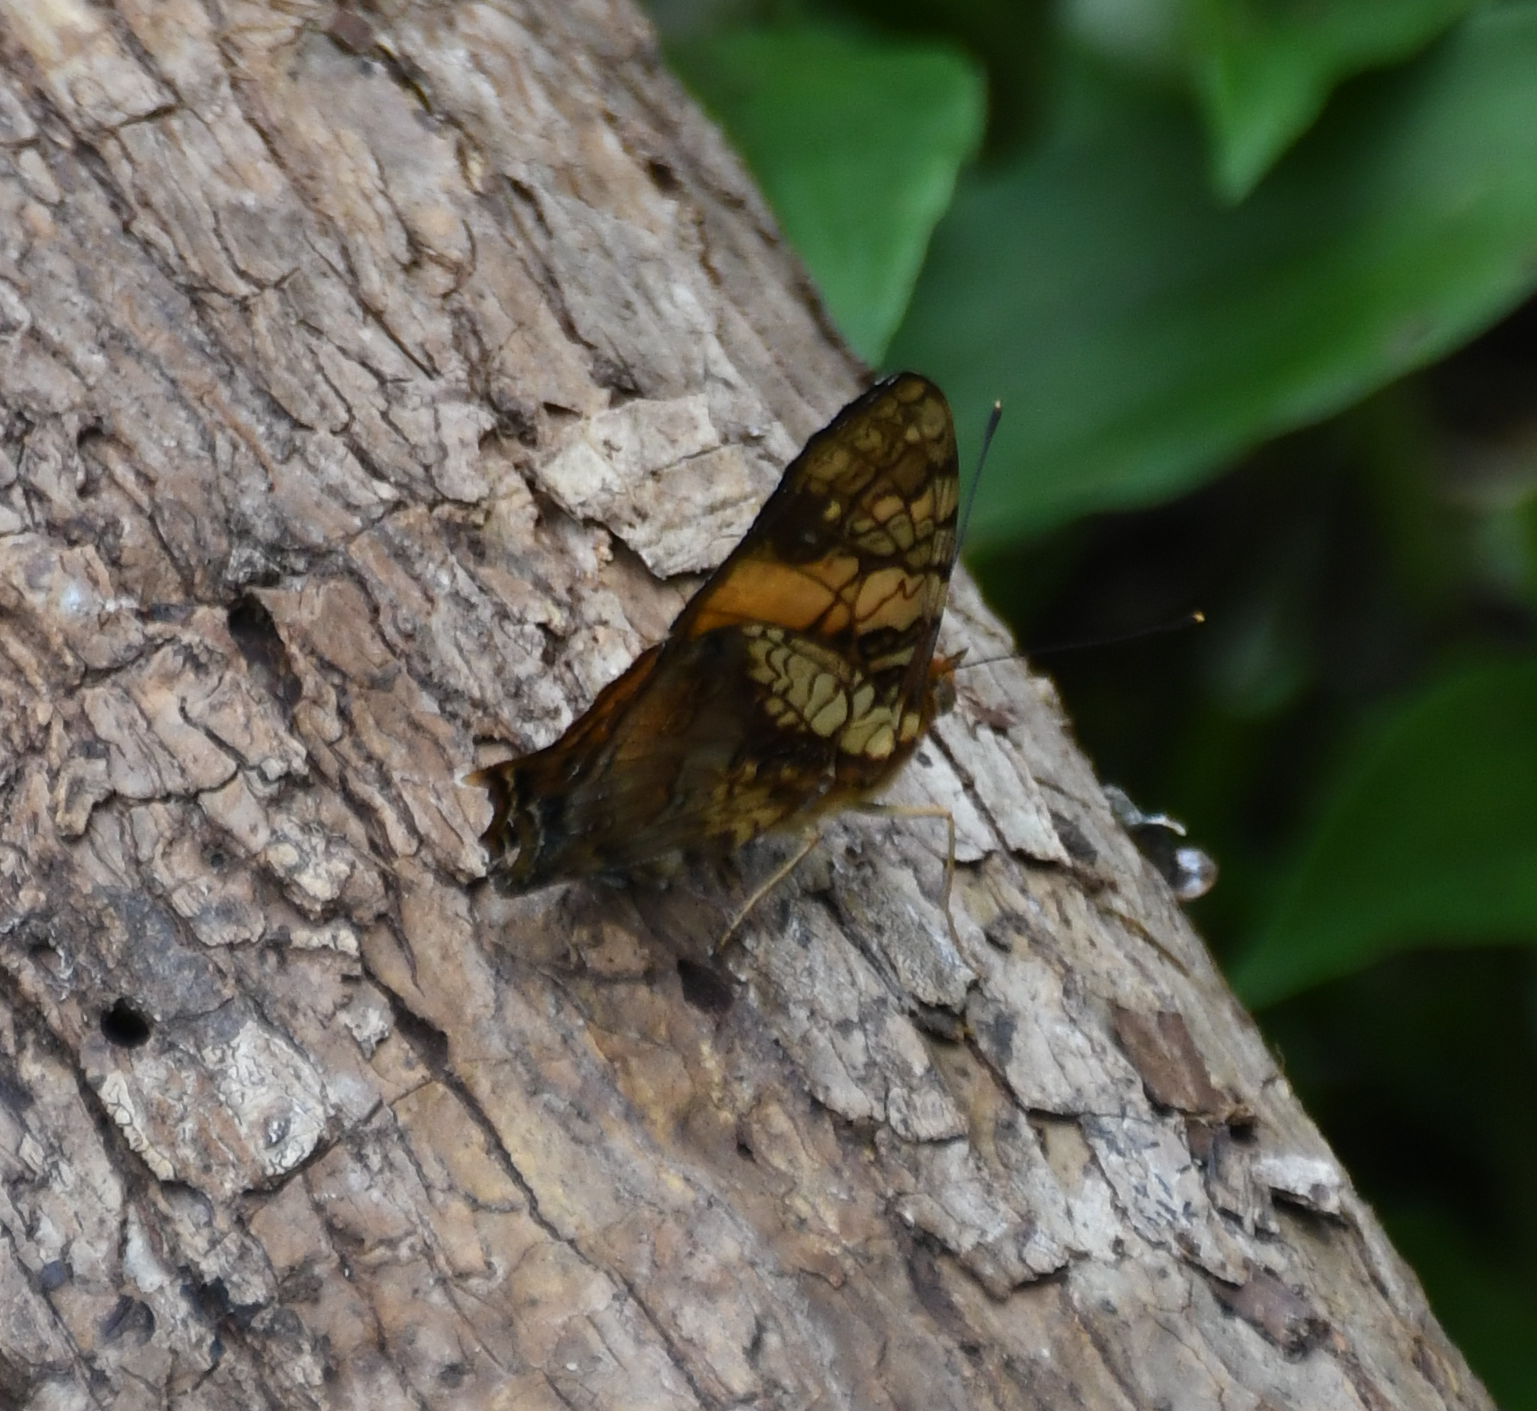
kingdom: Animalia
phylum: Arthropoda
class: Insecta
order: Lepidoptera
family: Nymphalidae
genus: Hypanartia
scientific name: Hypanartia lethe
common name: Orange mapwing
